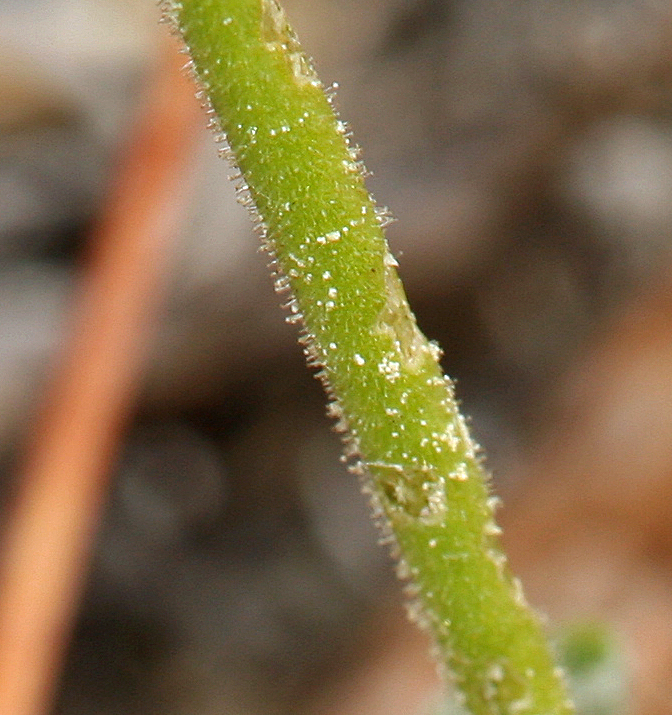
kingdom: Plantae
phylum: Tracheophyta
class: Magnoliopsida
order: Caryophyllales
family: Polygonaceae
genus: Eriogonum
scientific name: Eriogonum rosense
